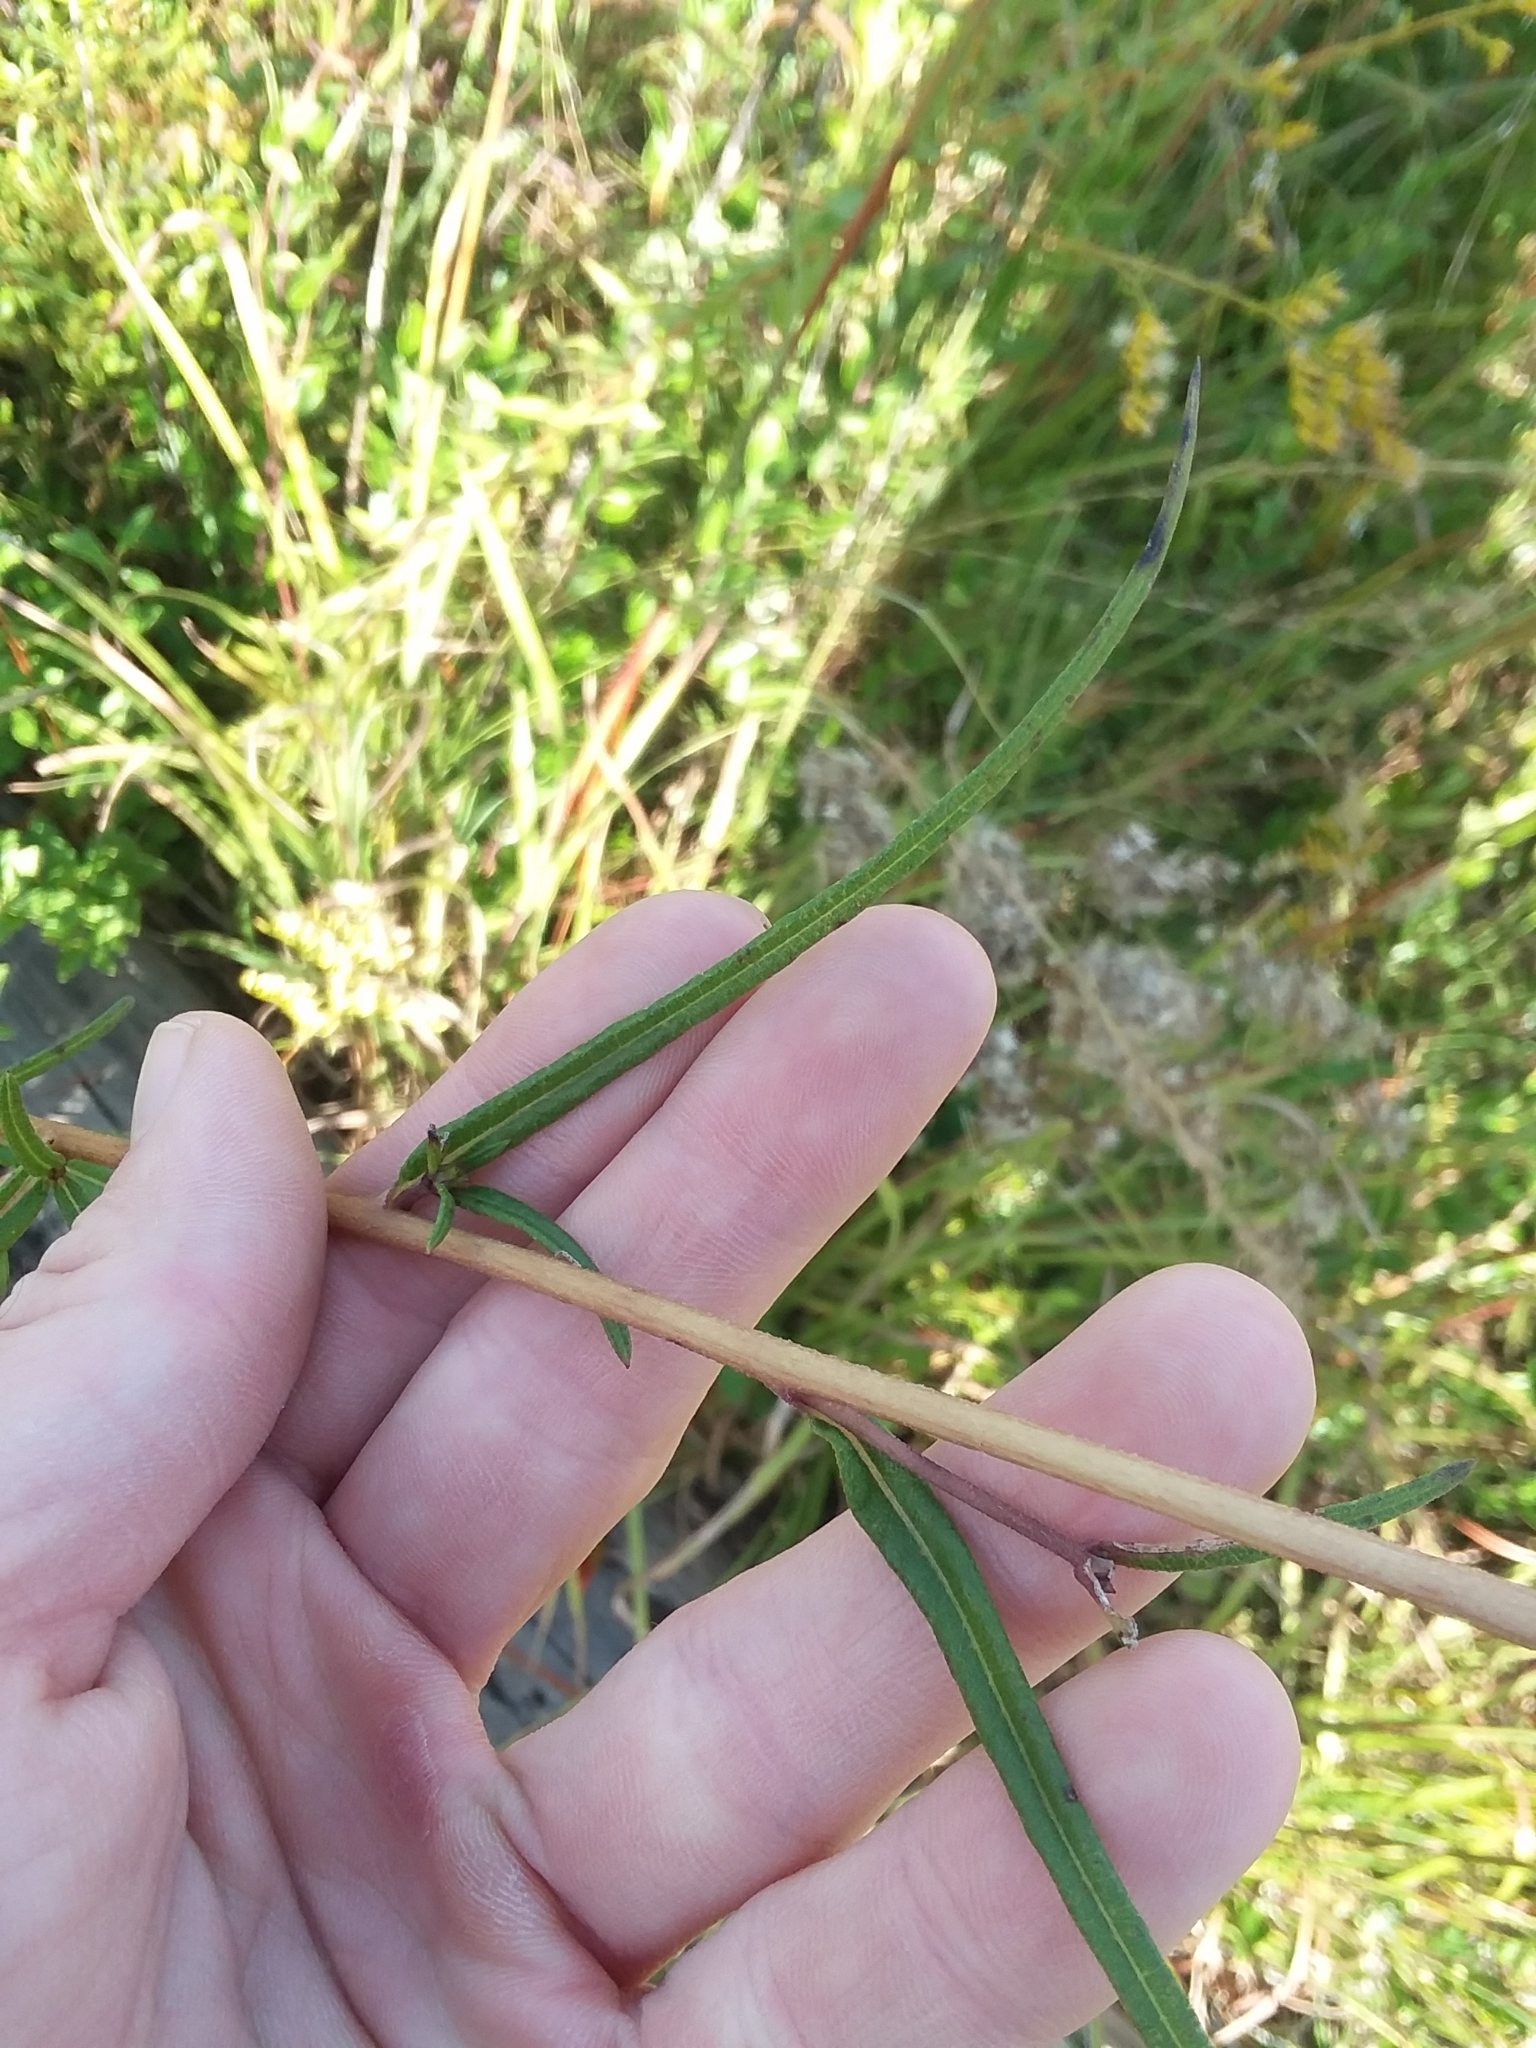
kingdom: Plantae
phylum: Tracheophyta
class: Magnoliopsida
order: Asterales
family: Asteraceae
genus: Helianthus
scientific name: Helianthus angustifolius
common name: Swamp sunflower
